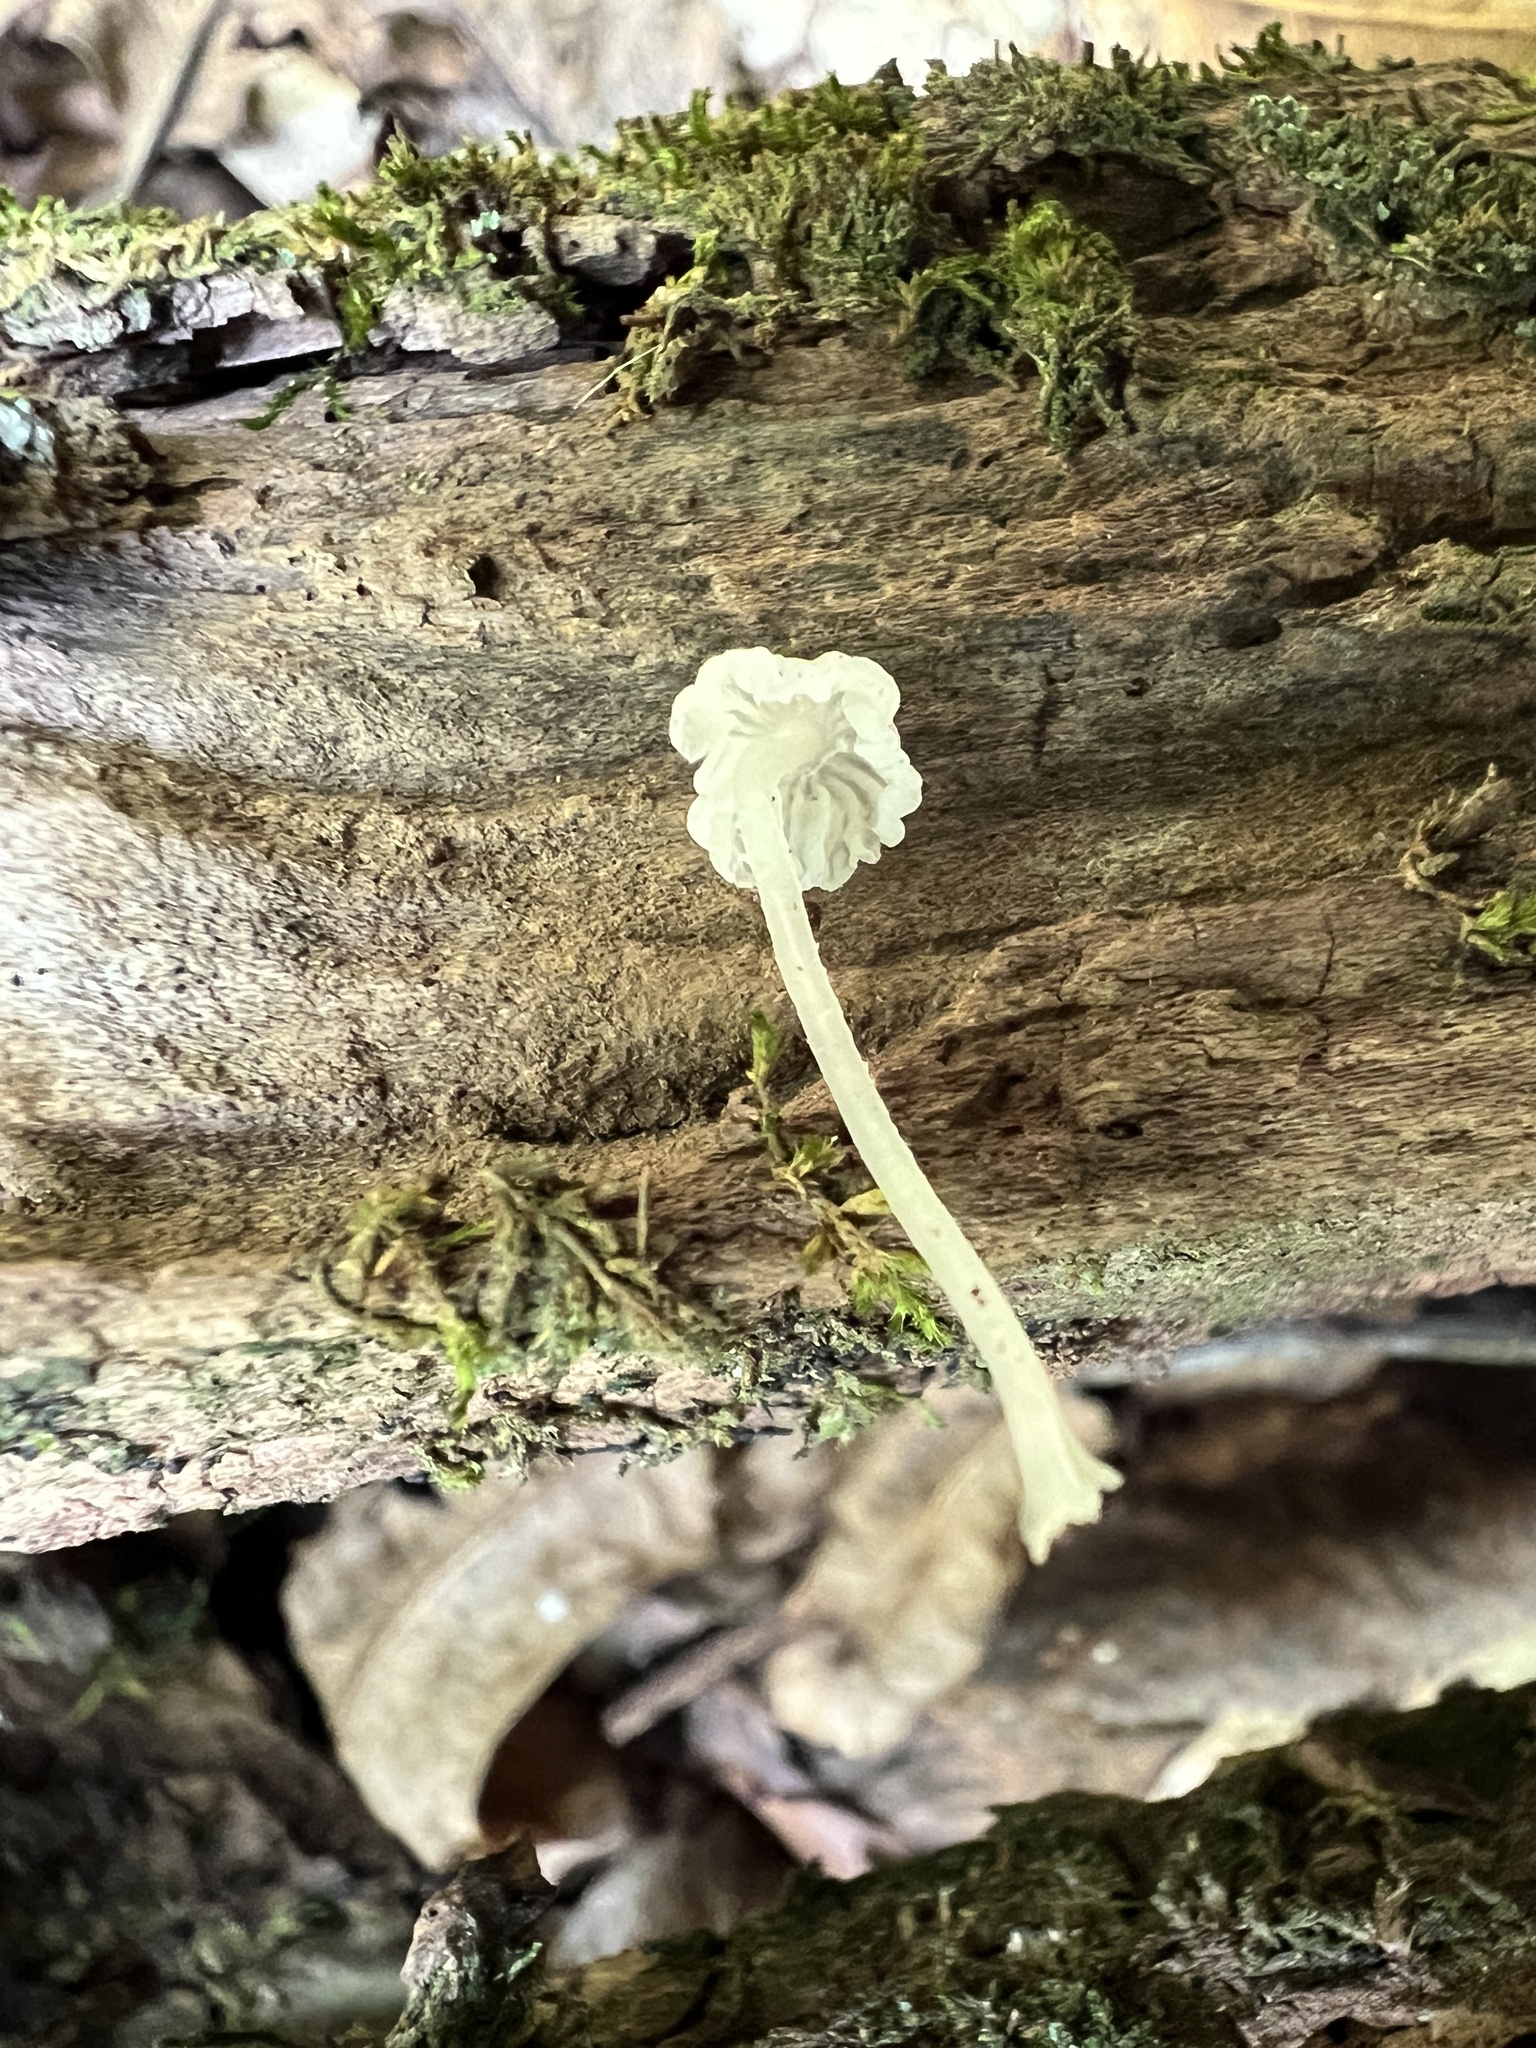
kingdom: Fungi
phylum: Basidiomycota
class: Agaricomycetes
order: Agaricales
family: Tricholomataceae
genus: Delicatula
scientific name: Delicatula integrella
